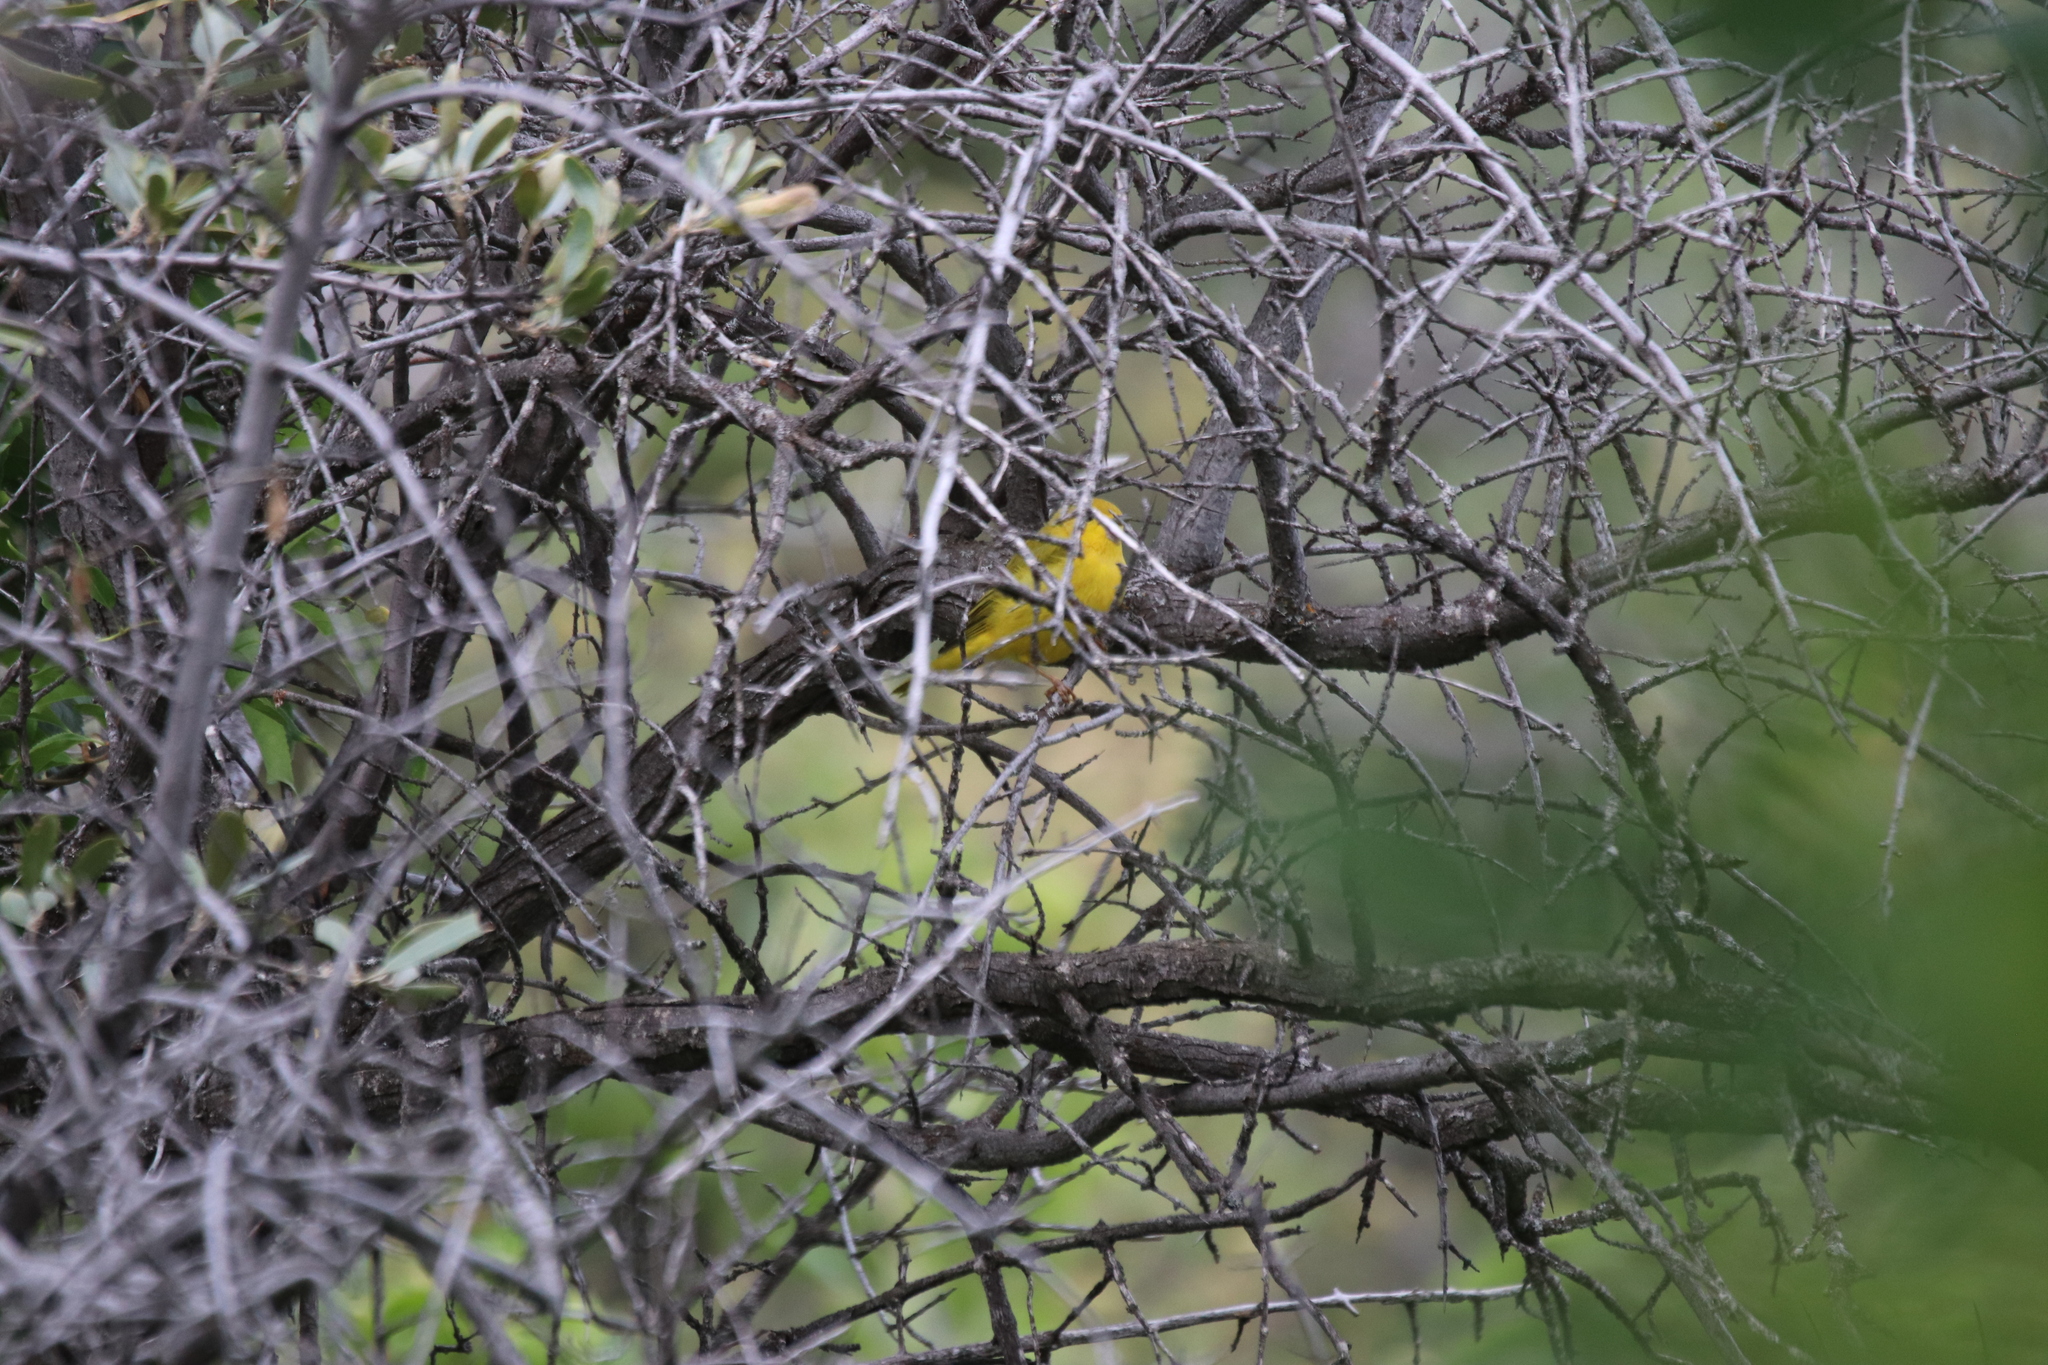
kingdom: Animalia
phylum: Chordata
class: Aves
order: Passeriformes
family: Parulidae
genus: Setophaga
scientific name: Setophaga petechia
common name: Yellow warbler
